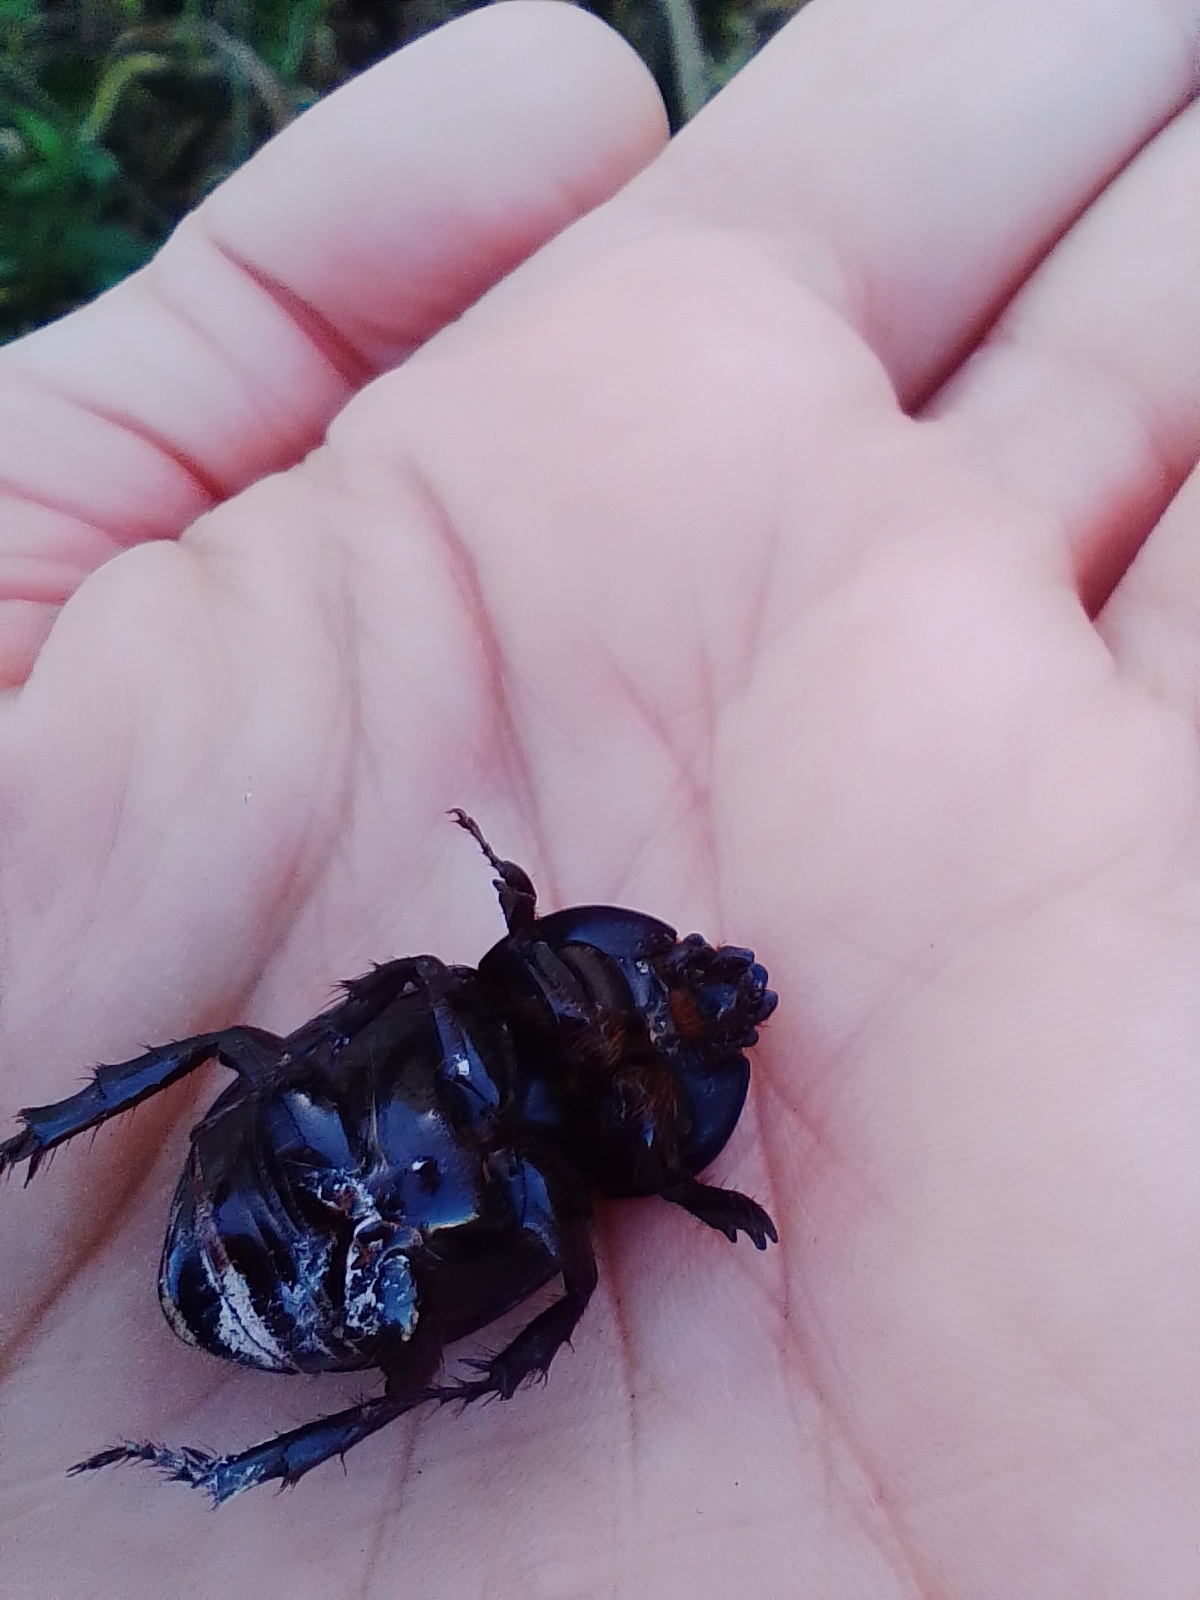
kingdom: Animalia
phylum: Arthropoda
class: Insecta
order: Coleoptera
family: Scarabaeidae
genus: Diloboderus
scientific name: Diloboderus abderus
